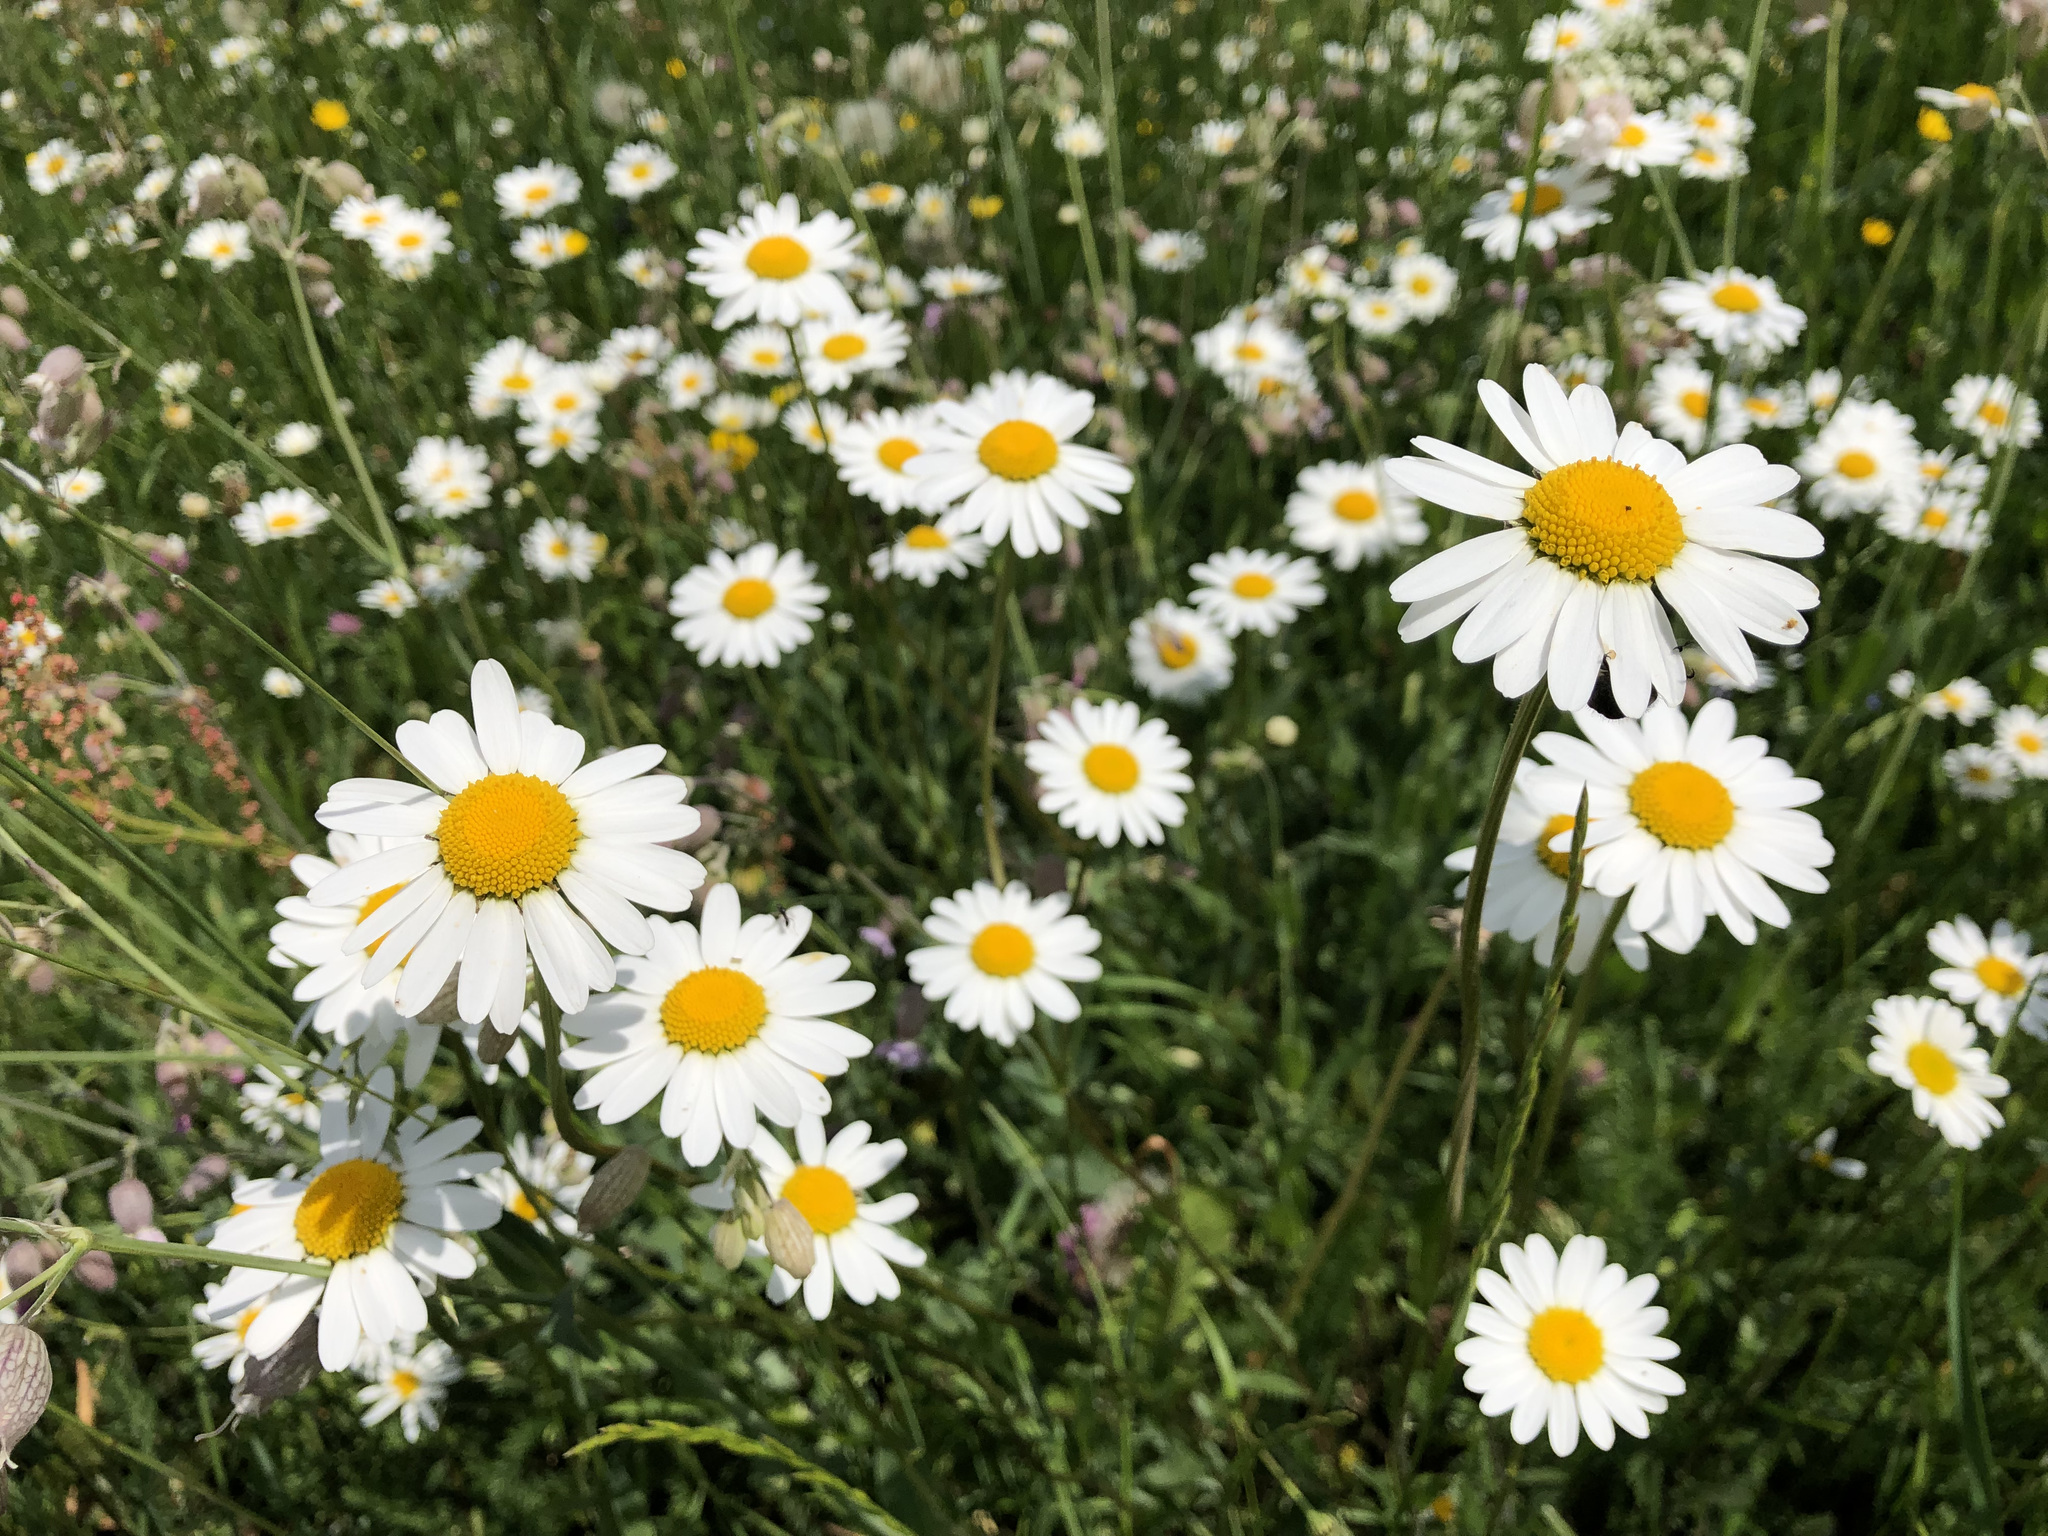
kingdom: Plantae
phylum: Tracheophyta
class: Magnoliopsida
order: Asterales
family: Asteraceae
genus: Leucanthemum
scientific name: Leucanthemum vulgare
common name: Oxeye daisy
